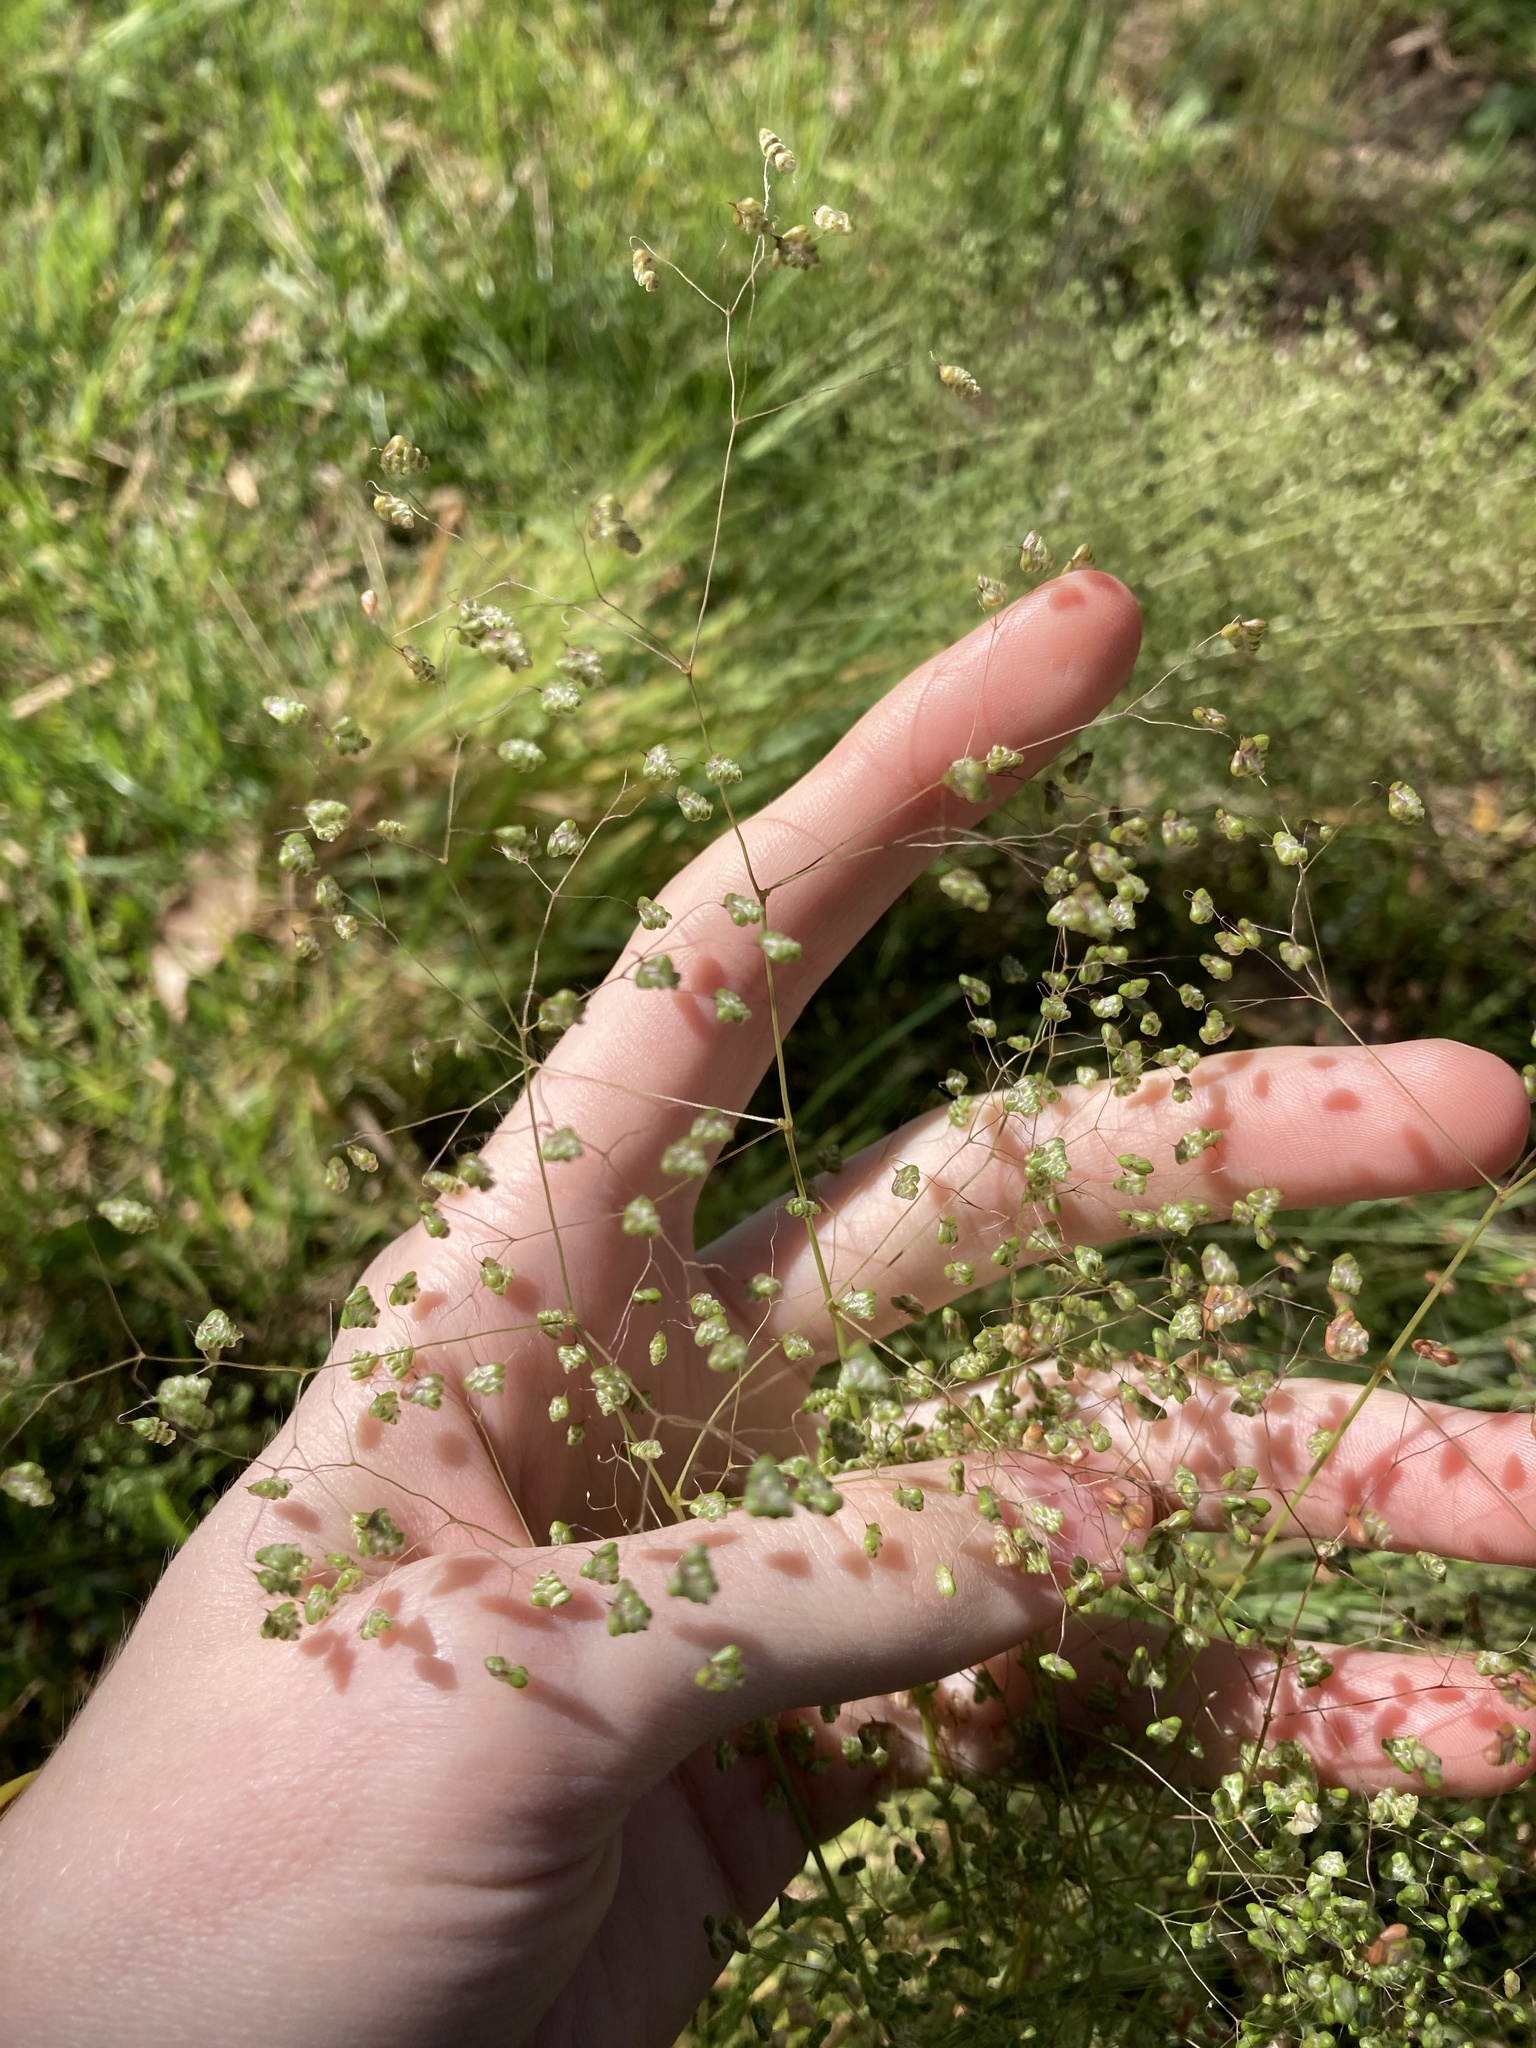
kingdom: Plantae
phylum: Tracheophyta
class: Liliopsida
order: Poales
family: Poaceae
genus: Briza
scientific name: Briza minor
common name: Lesser quaking-grass
